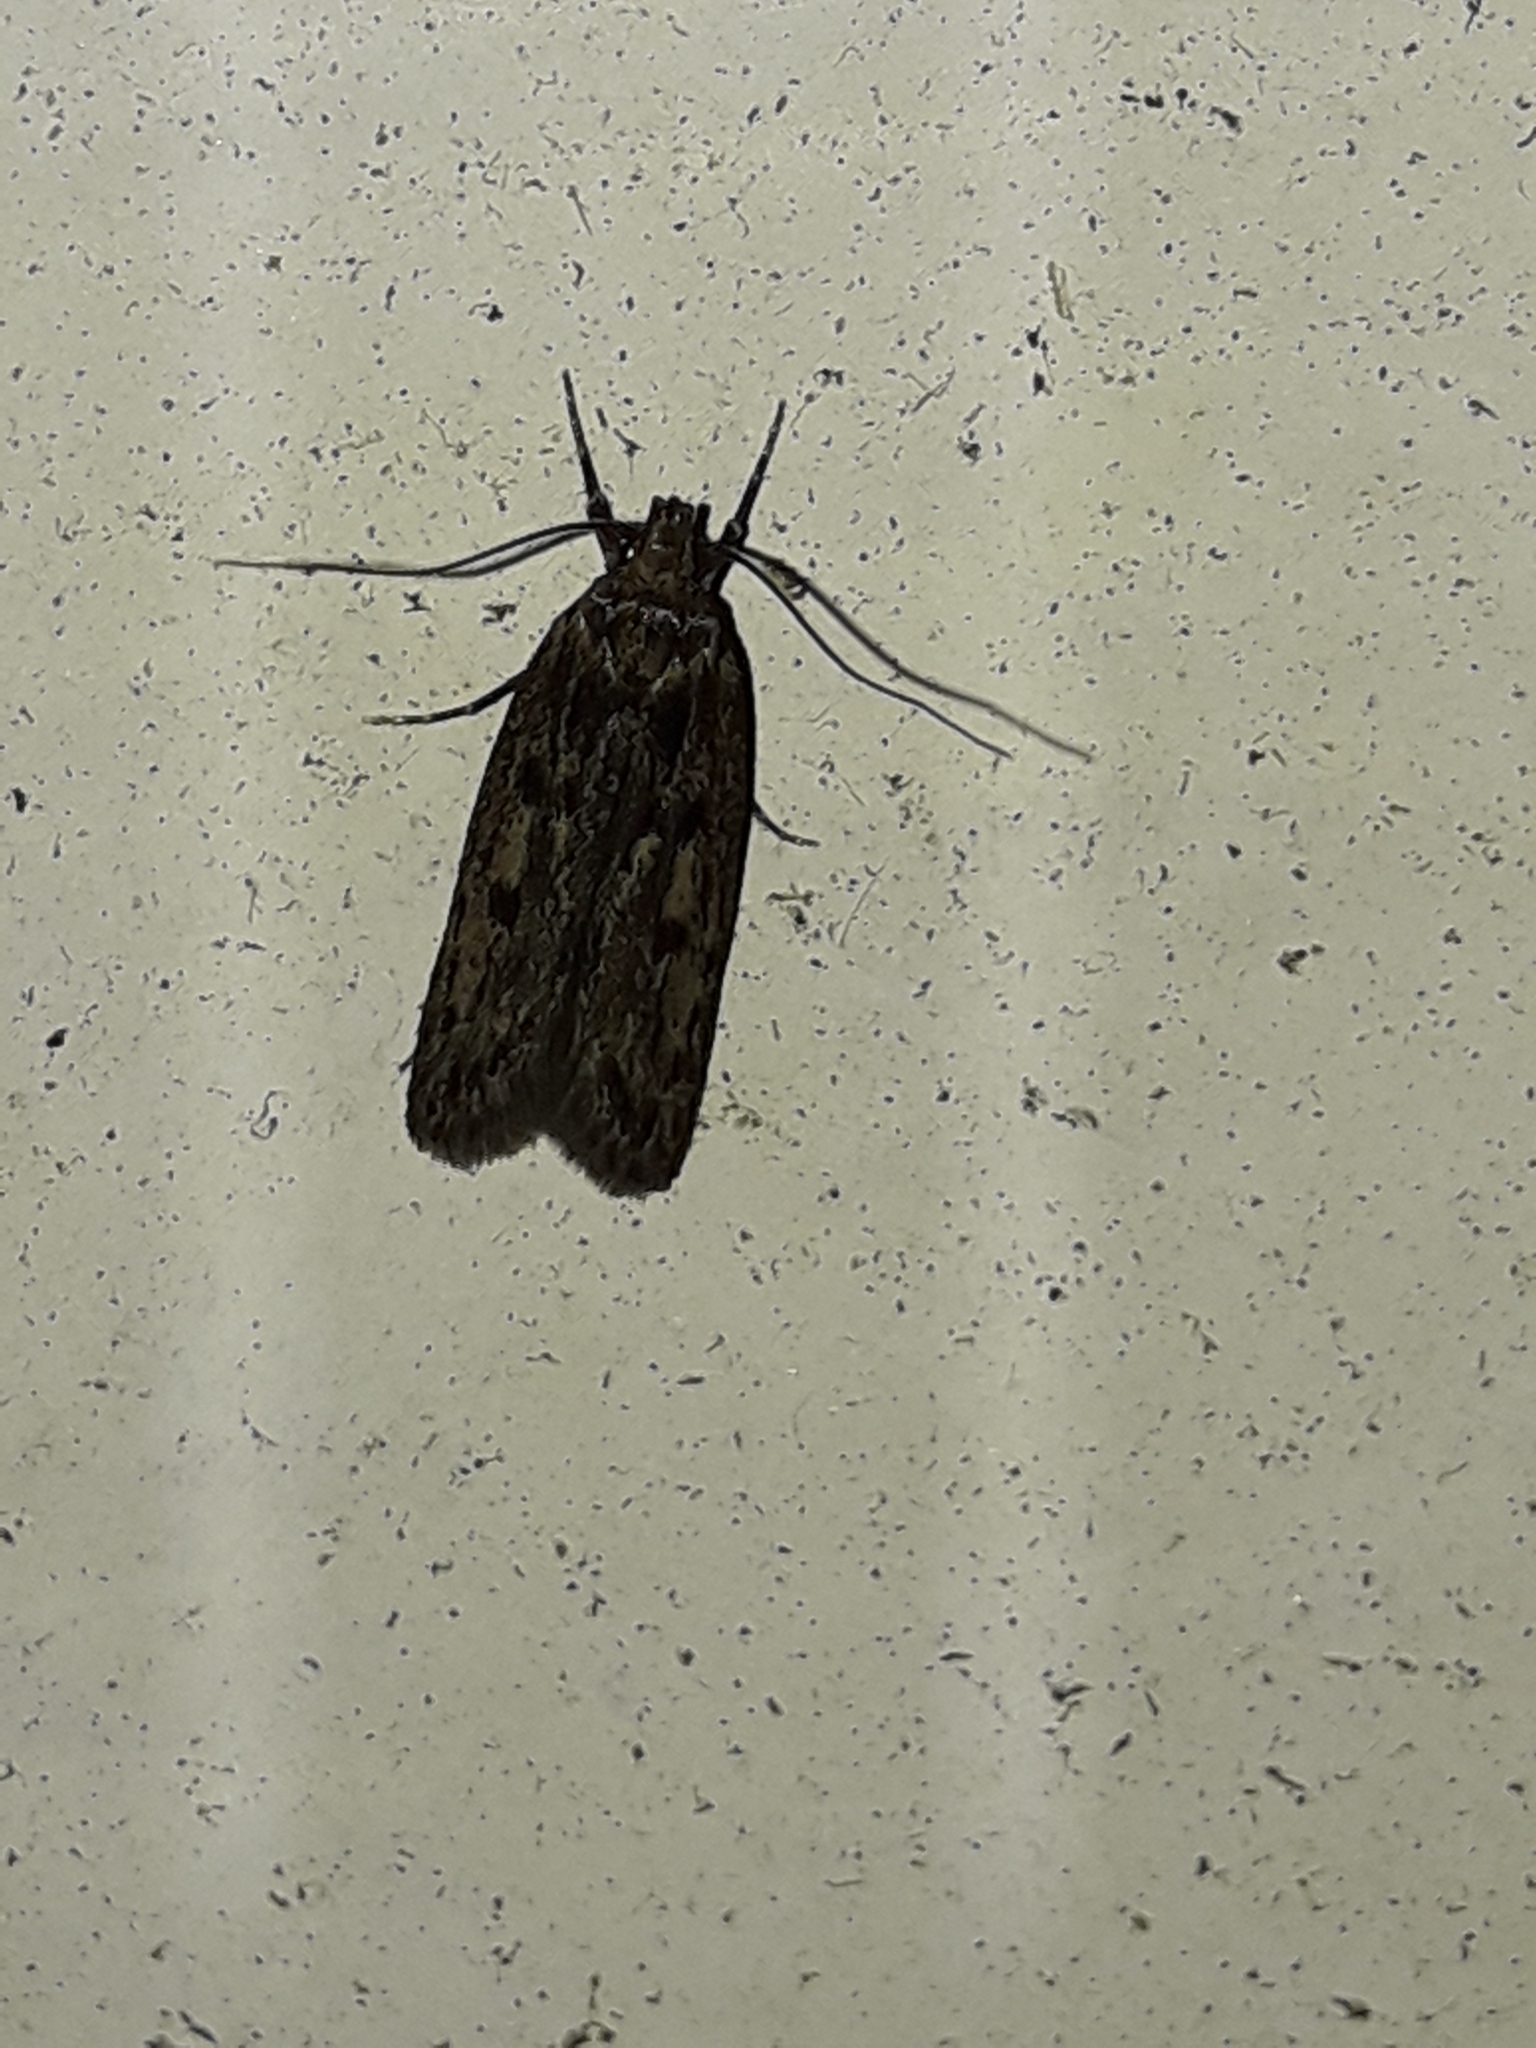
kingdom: Animalia
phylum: Arthropoda
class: Insecta
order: Lepidoptera
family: Oecophoridae
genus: Hofmannophila
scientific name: Hofmannophila pseudospretella
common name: Brown house moth
